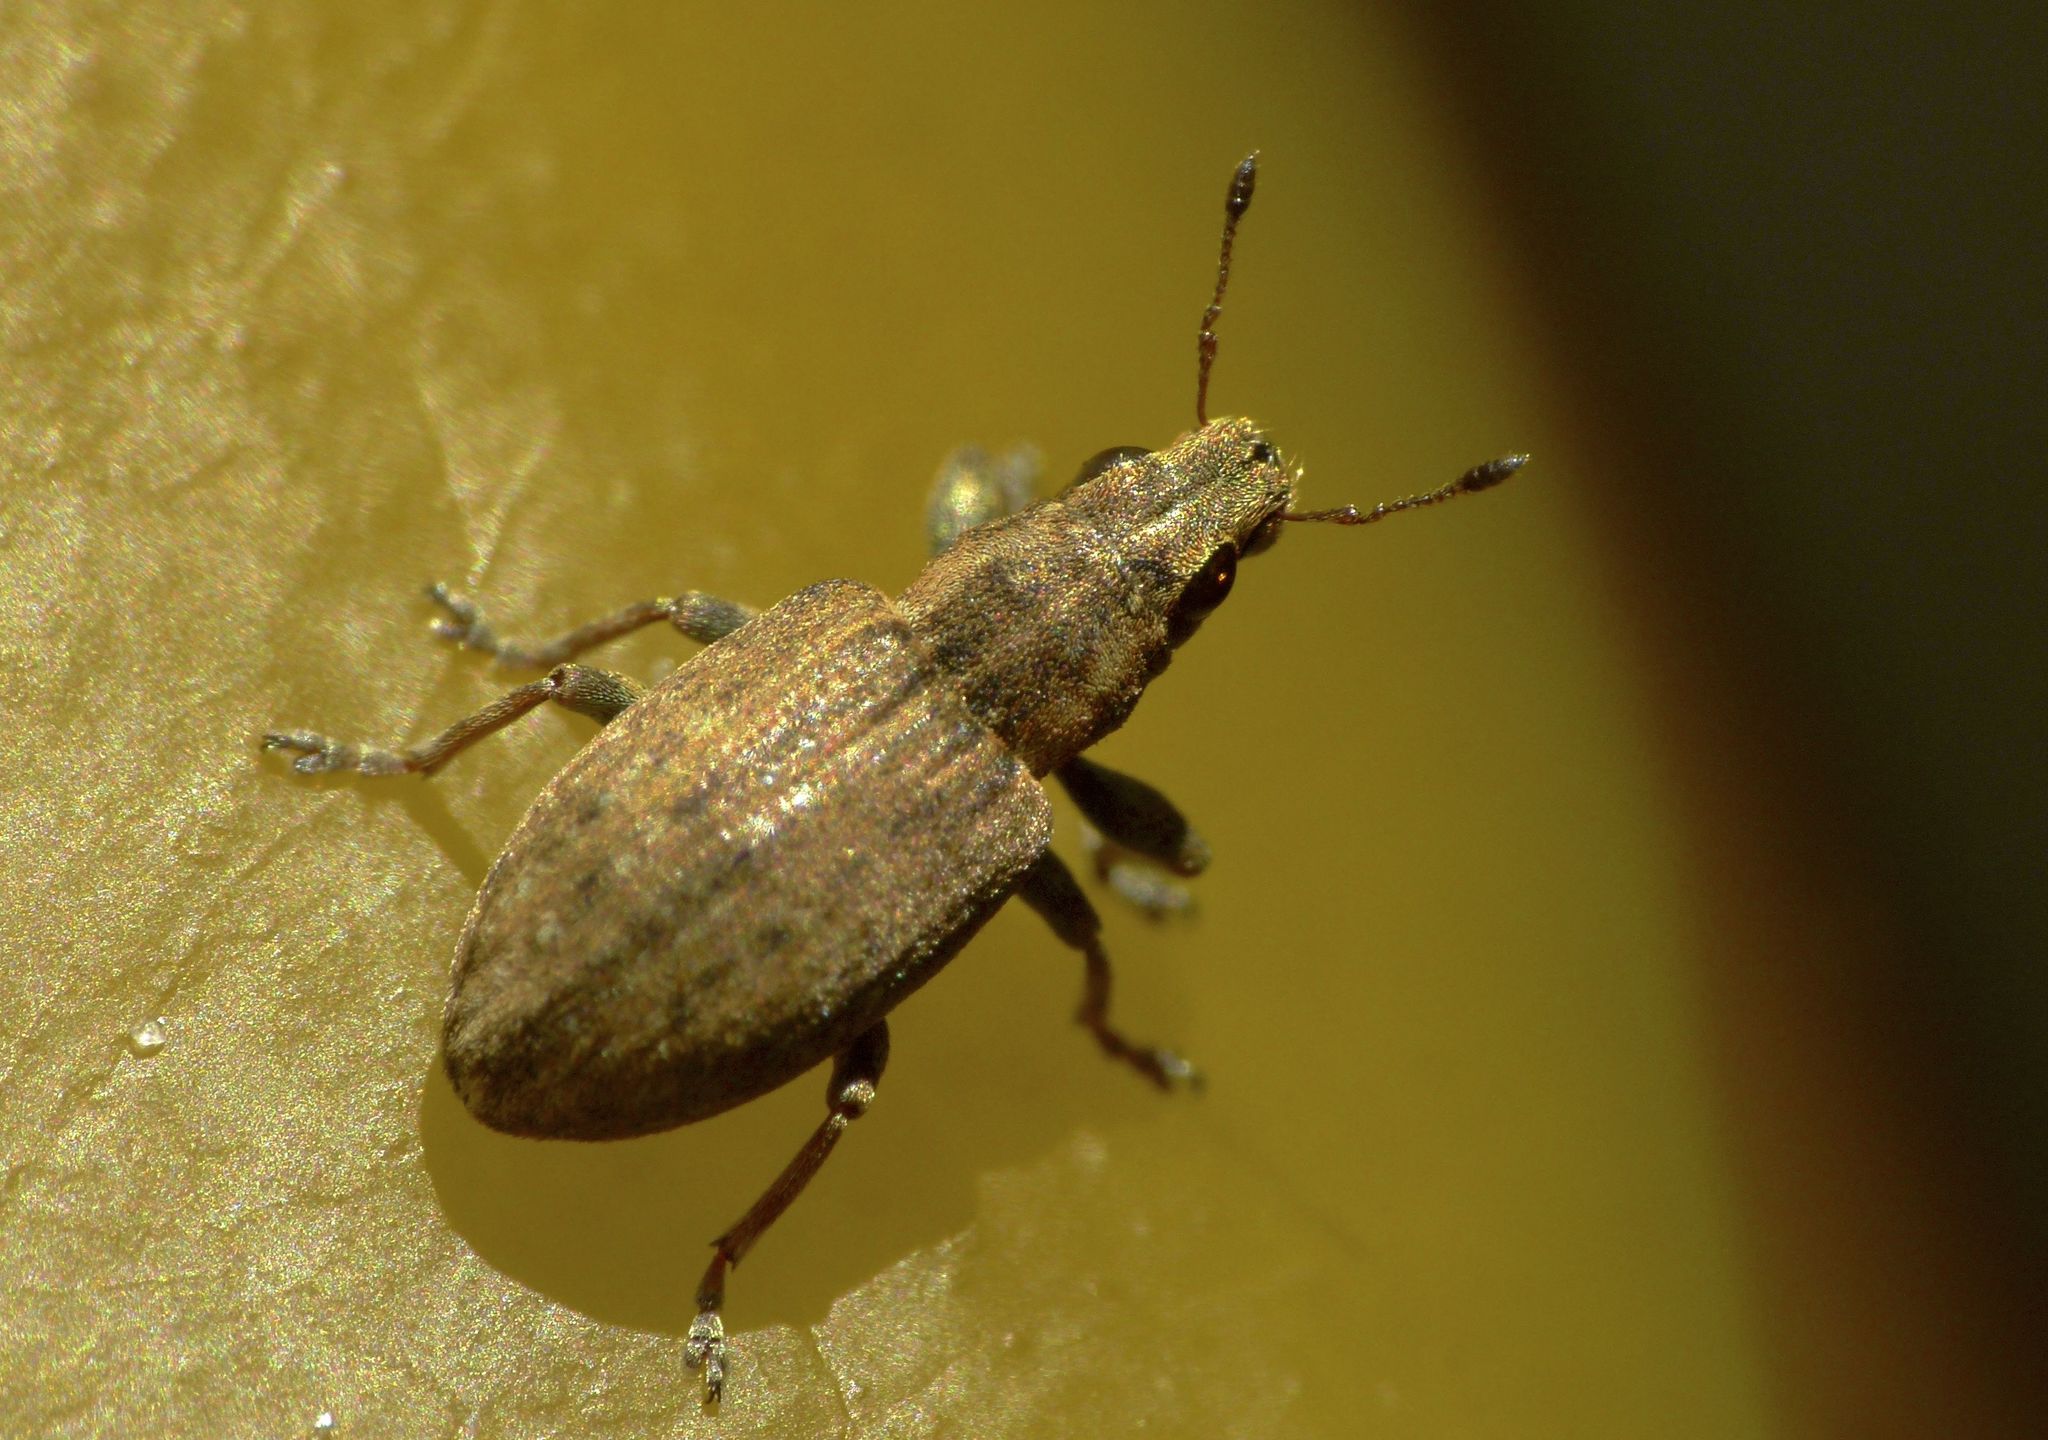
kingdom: Animalia
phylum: Arthropoda
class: Insecta
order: Coleoptera
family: Curculionidae
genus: Sitona
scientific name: Sitona obsoletus
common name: Weevil
